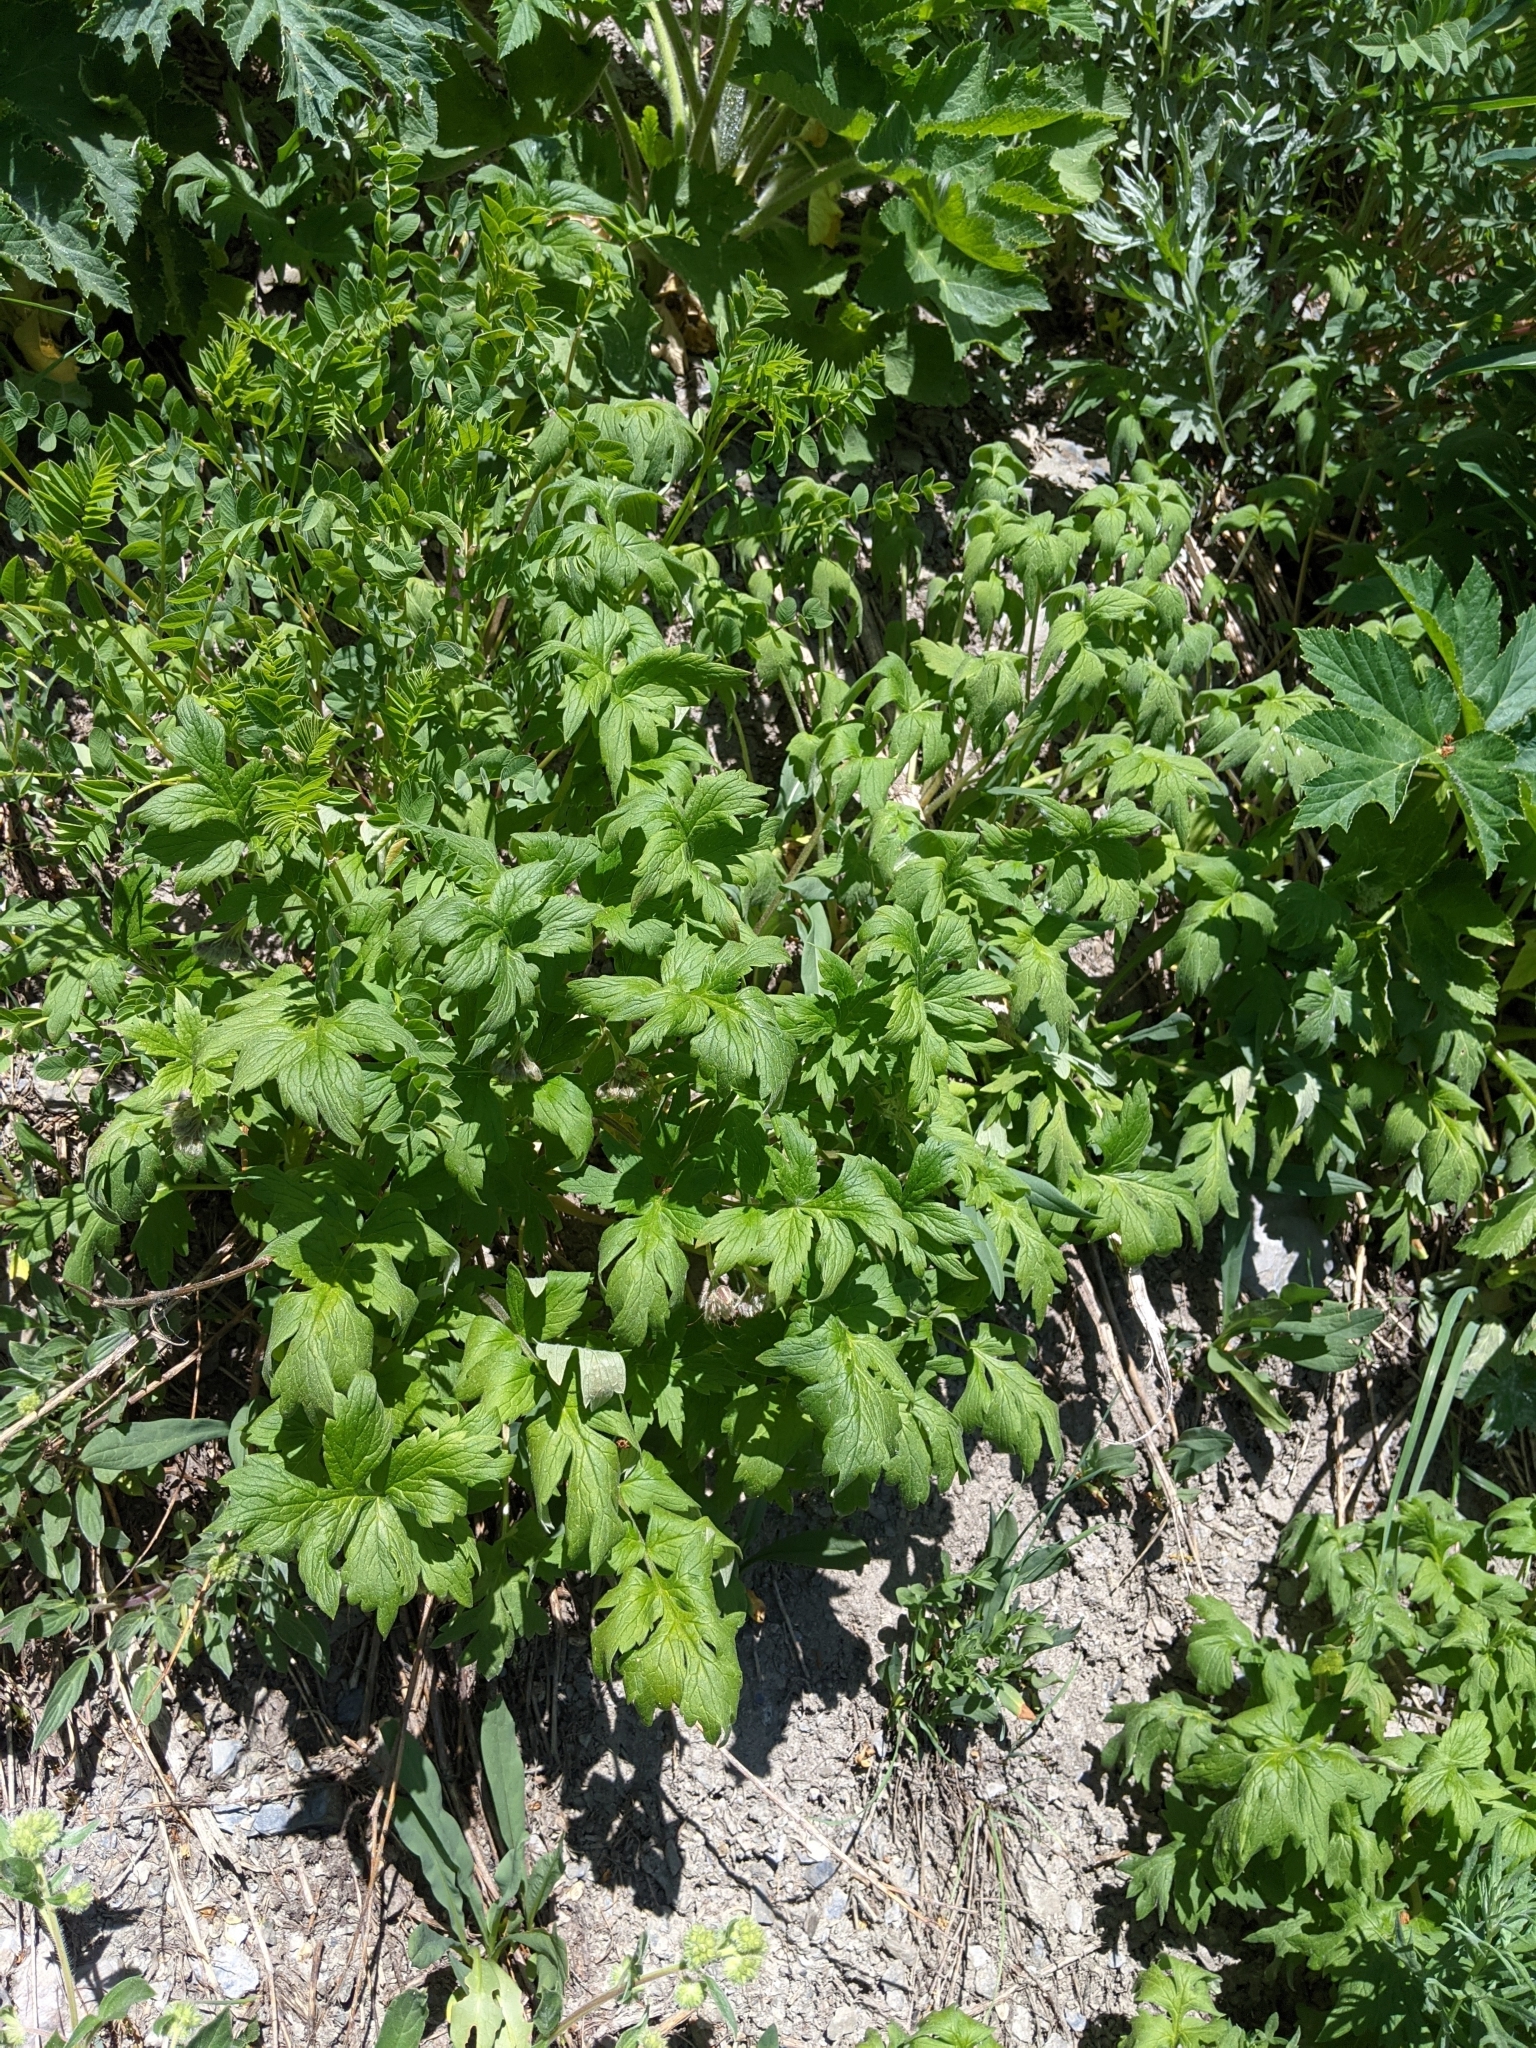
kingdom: Plantae
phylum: Tracheophyta
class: Magnoliopsida
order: Boraginales
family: Hydrophyllaceae
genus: Hydrophyllum
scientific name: Hydrophyllum fendleri
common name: Fendler's waterleaf
